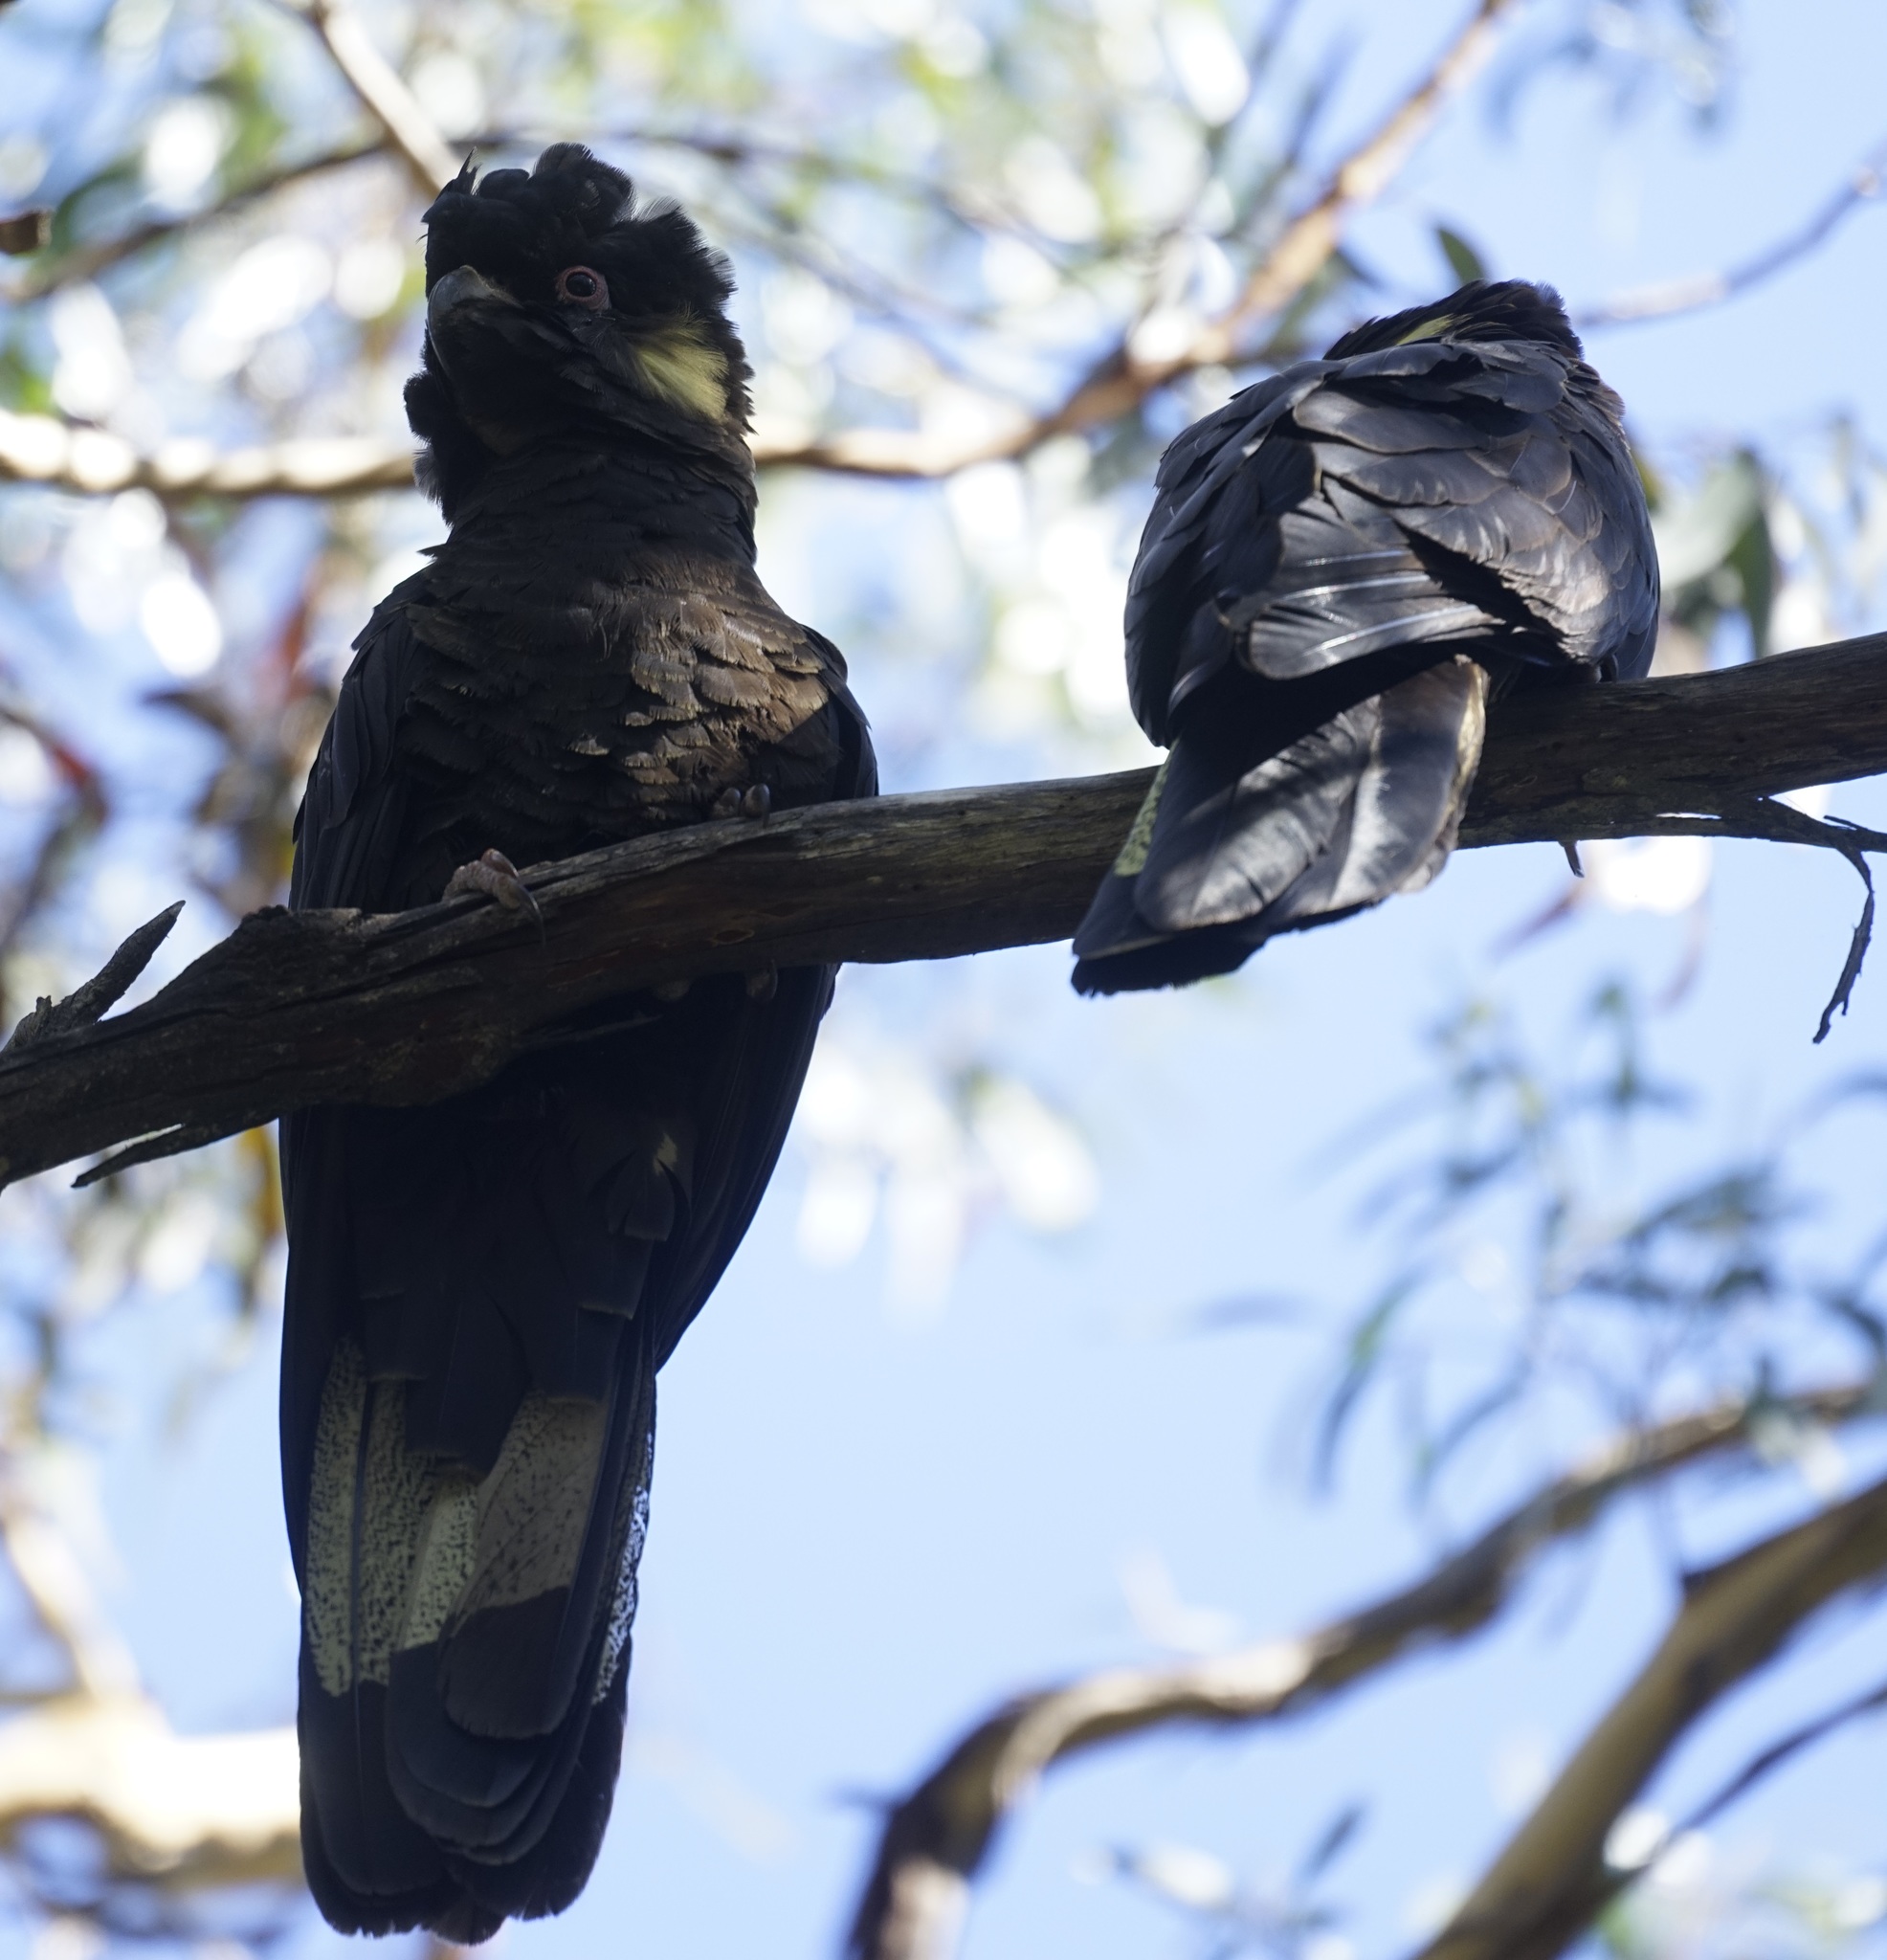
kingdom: Animalia
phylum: Chordata
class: Aves
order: Psittaciformes
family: Cacatuidae
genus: Zanda
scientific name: Zanda funerea
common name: Yellow-tailed black-cockatoo
